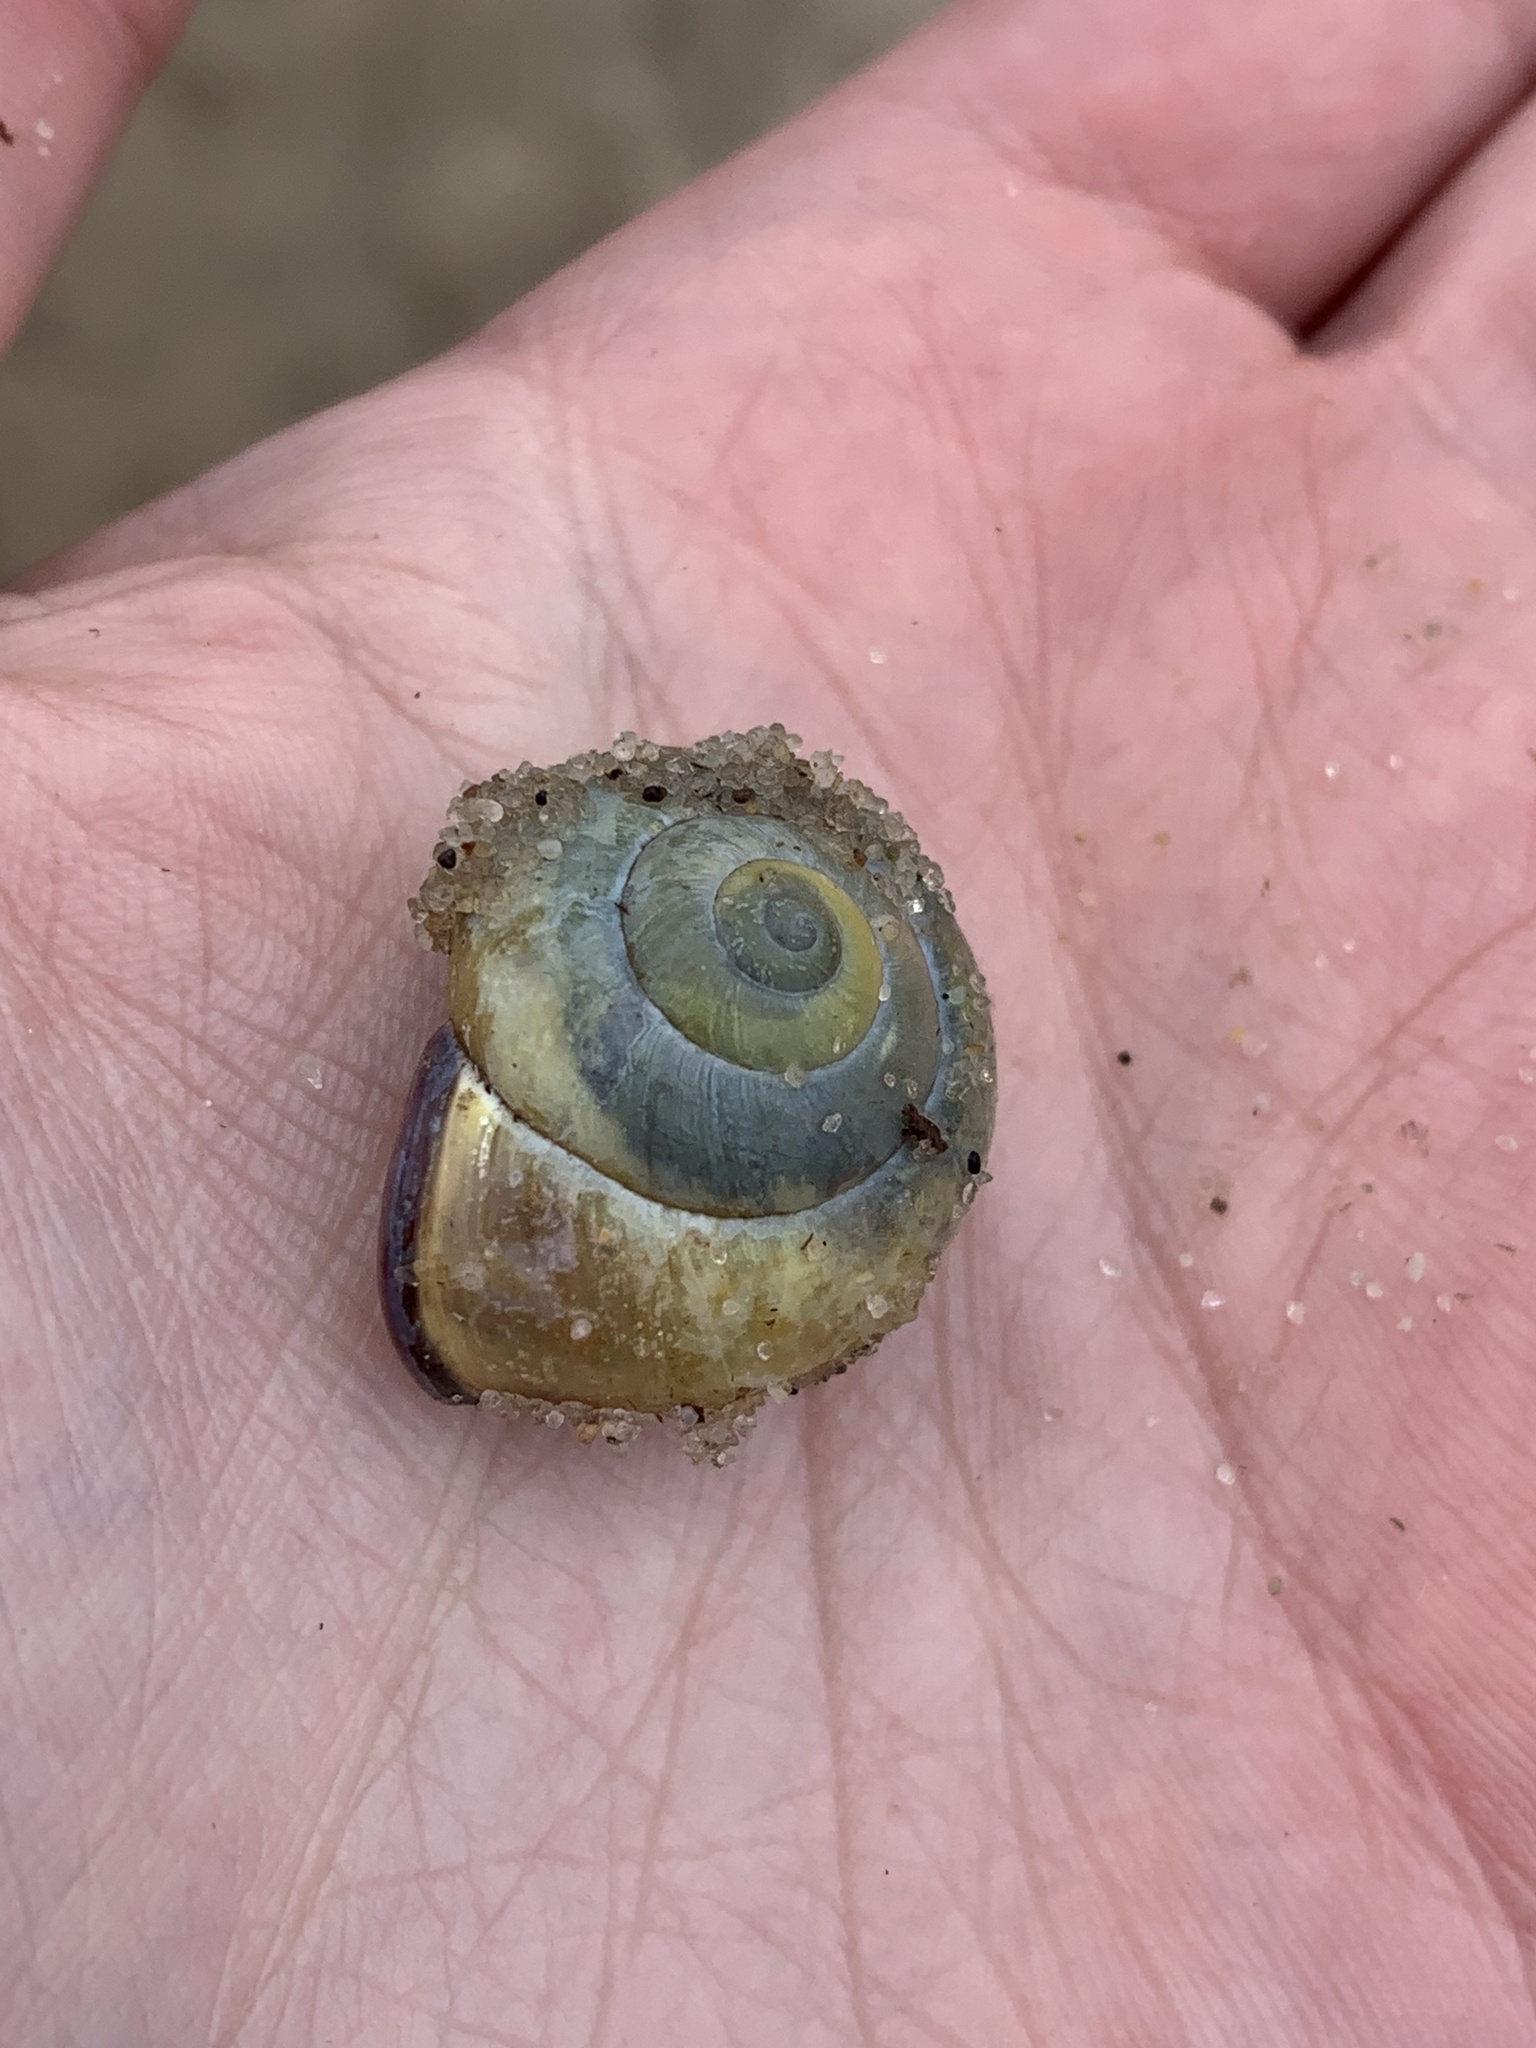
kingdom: Animalia
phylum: Mollusca
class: Gastropoda
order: Stylommatophora
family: Helicidae
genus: Cepaea
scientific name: Cepaea nemoralis
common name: Grovesnail
